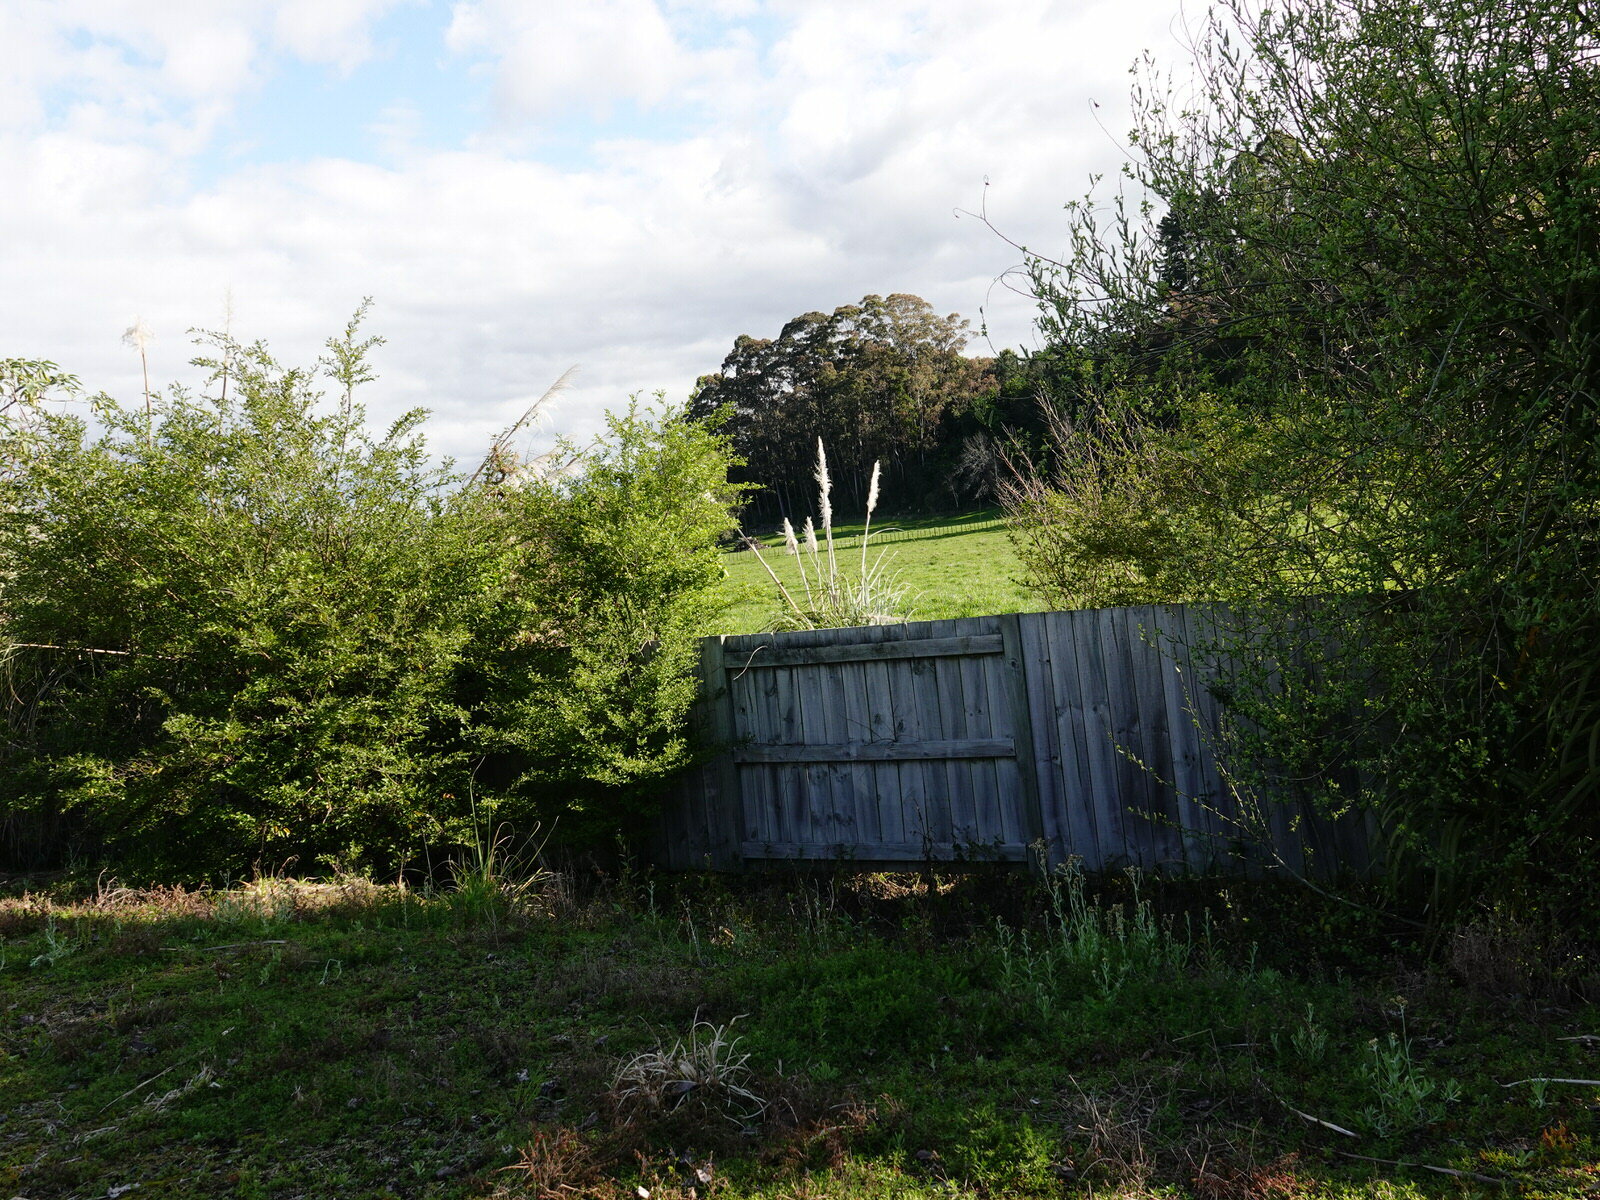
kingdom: Plantae
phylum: Tracheophyta
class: Liliopsida
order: Poales
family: Poaceae
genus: Cortaderia
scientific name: Cortaderia selloana
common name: Uruguayan pampas grass
